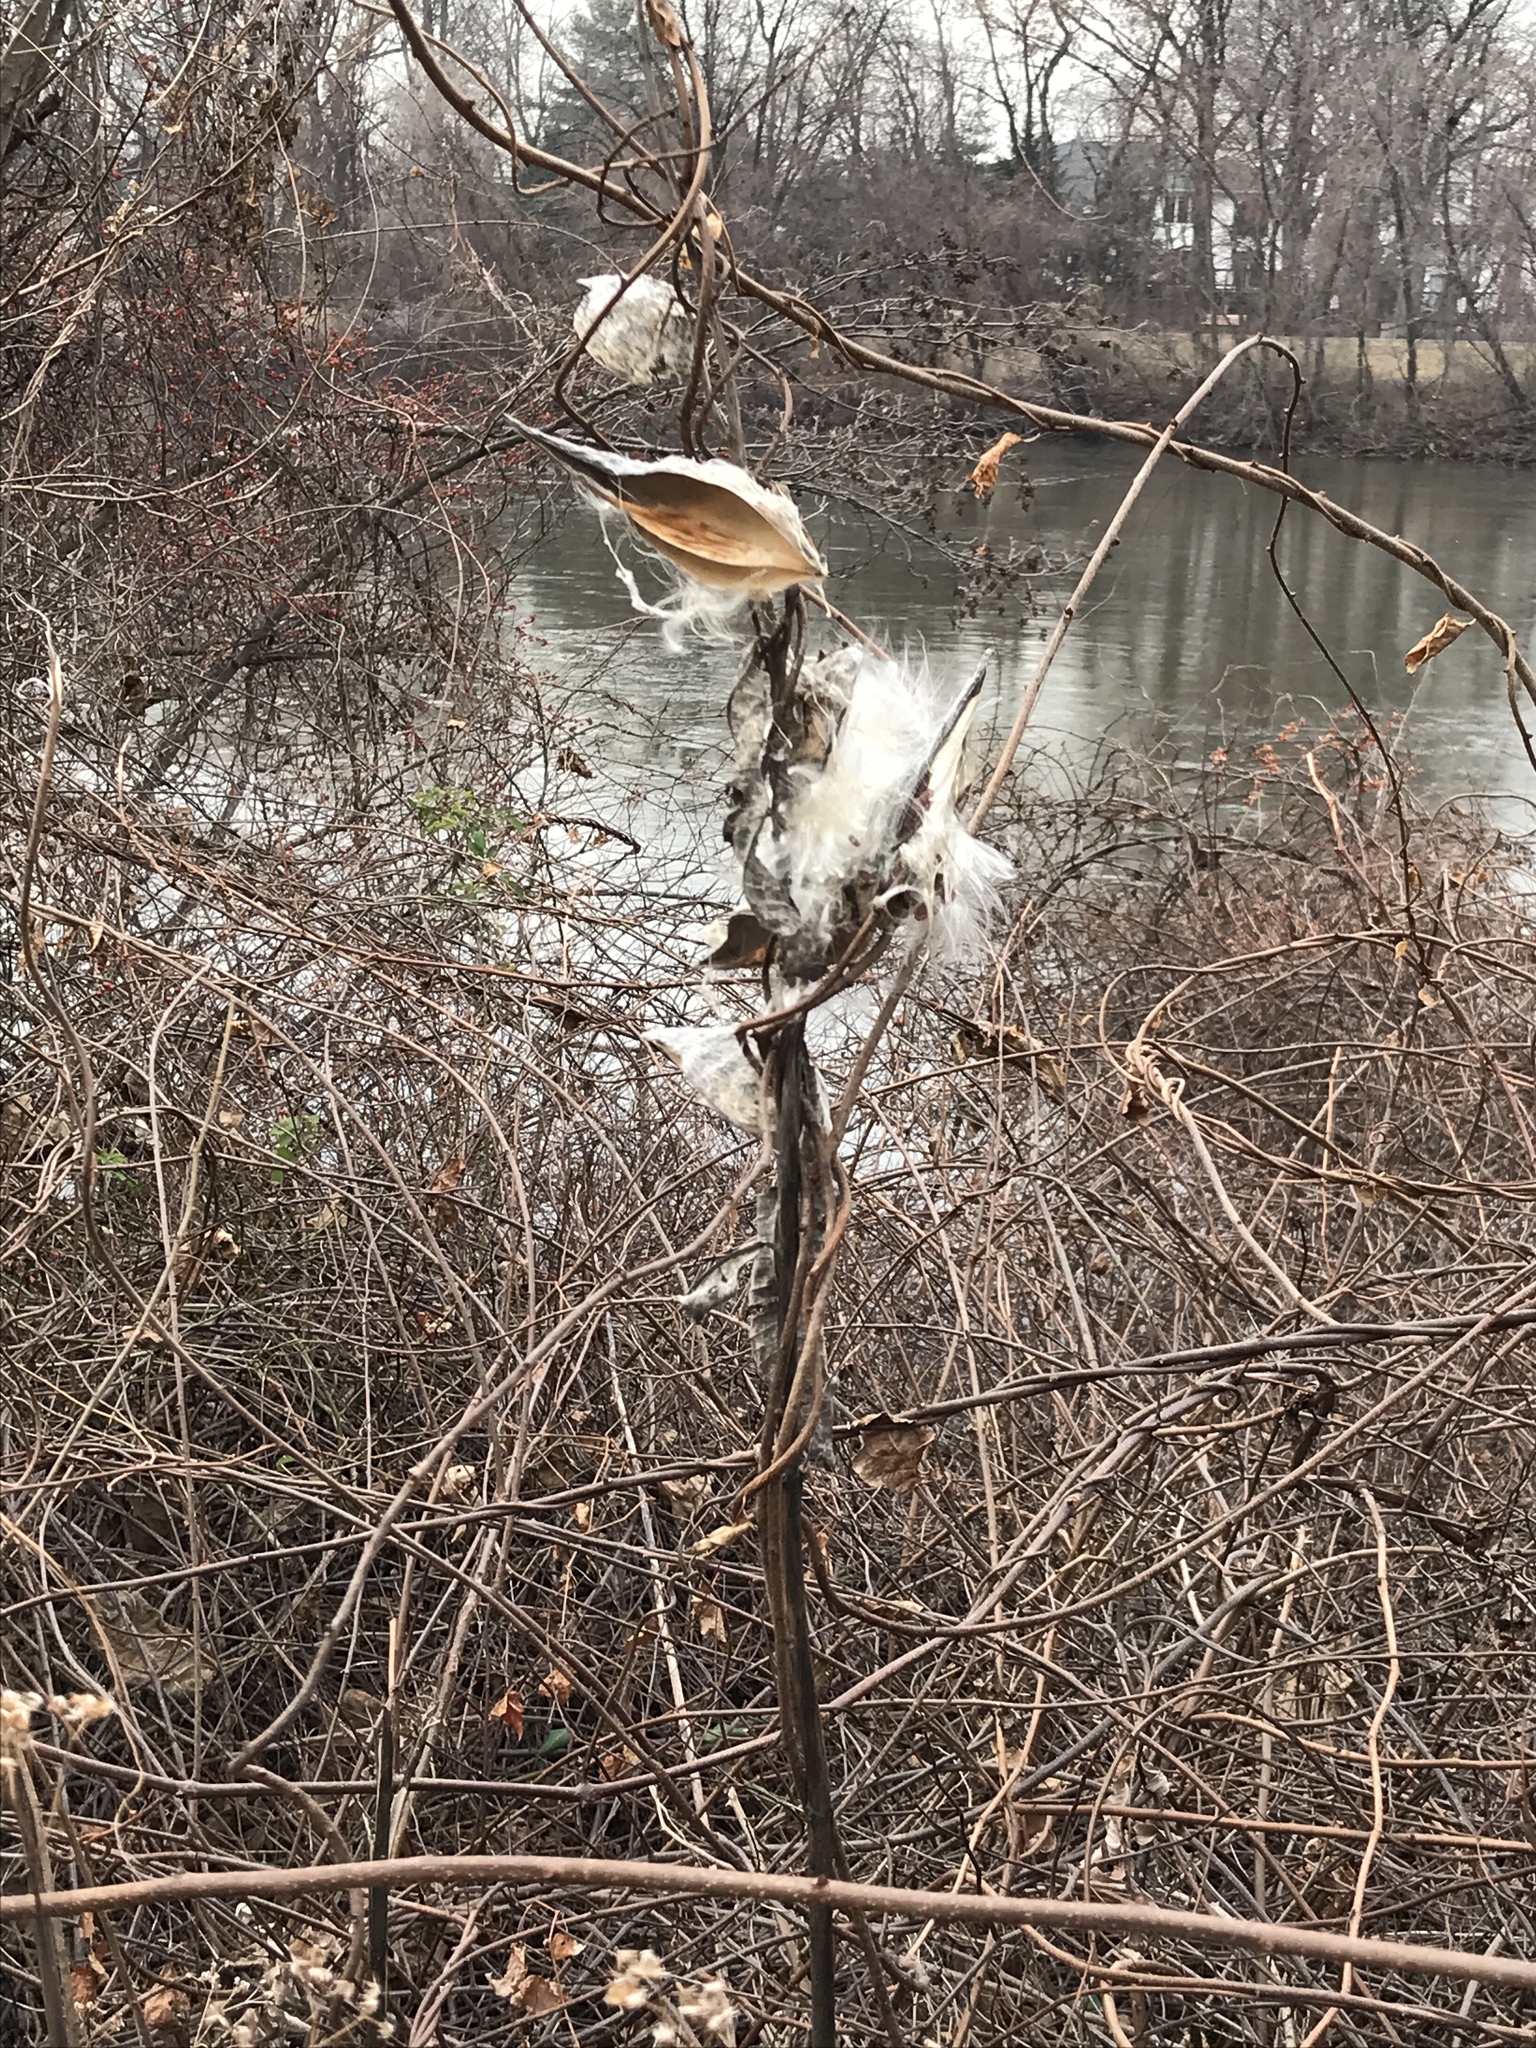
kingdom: Plantae
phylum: Tracheophyta
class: Magnoliopsida
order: Gentianales
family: Apocynaceae
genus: Asclepias
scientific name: Asclepias syriaca
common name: Common milkweed
